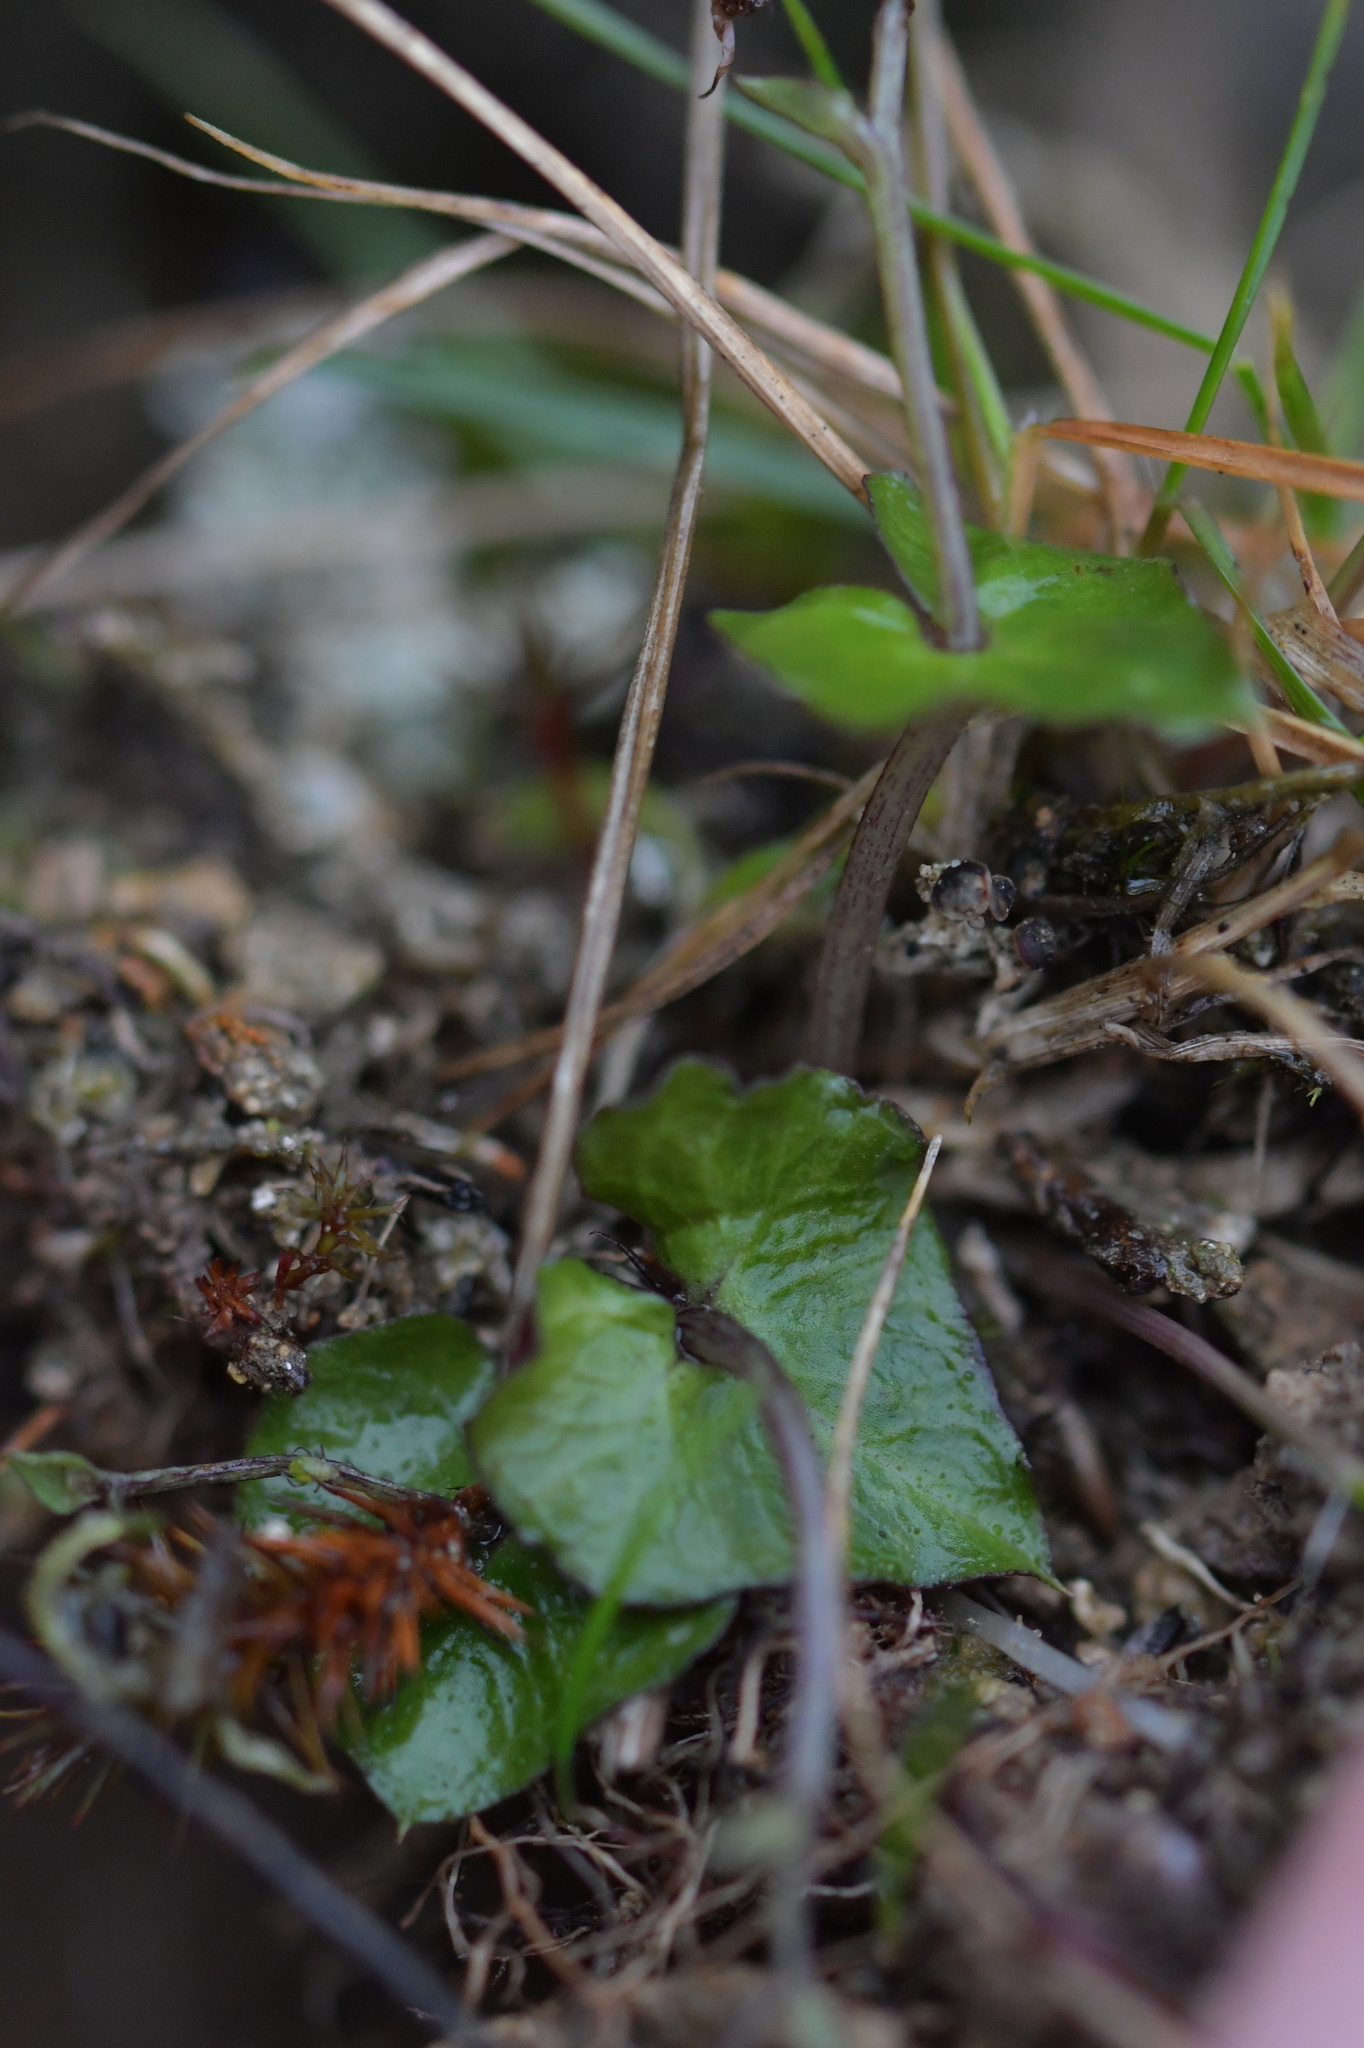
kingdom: Plantae
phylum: Tracheophyta
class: Liliopsida
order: Asparagales
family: Orchidaceae
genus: Acianthus
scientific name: Acianthus sinclairii
